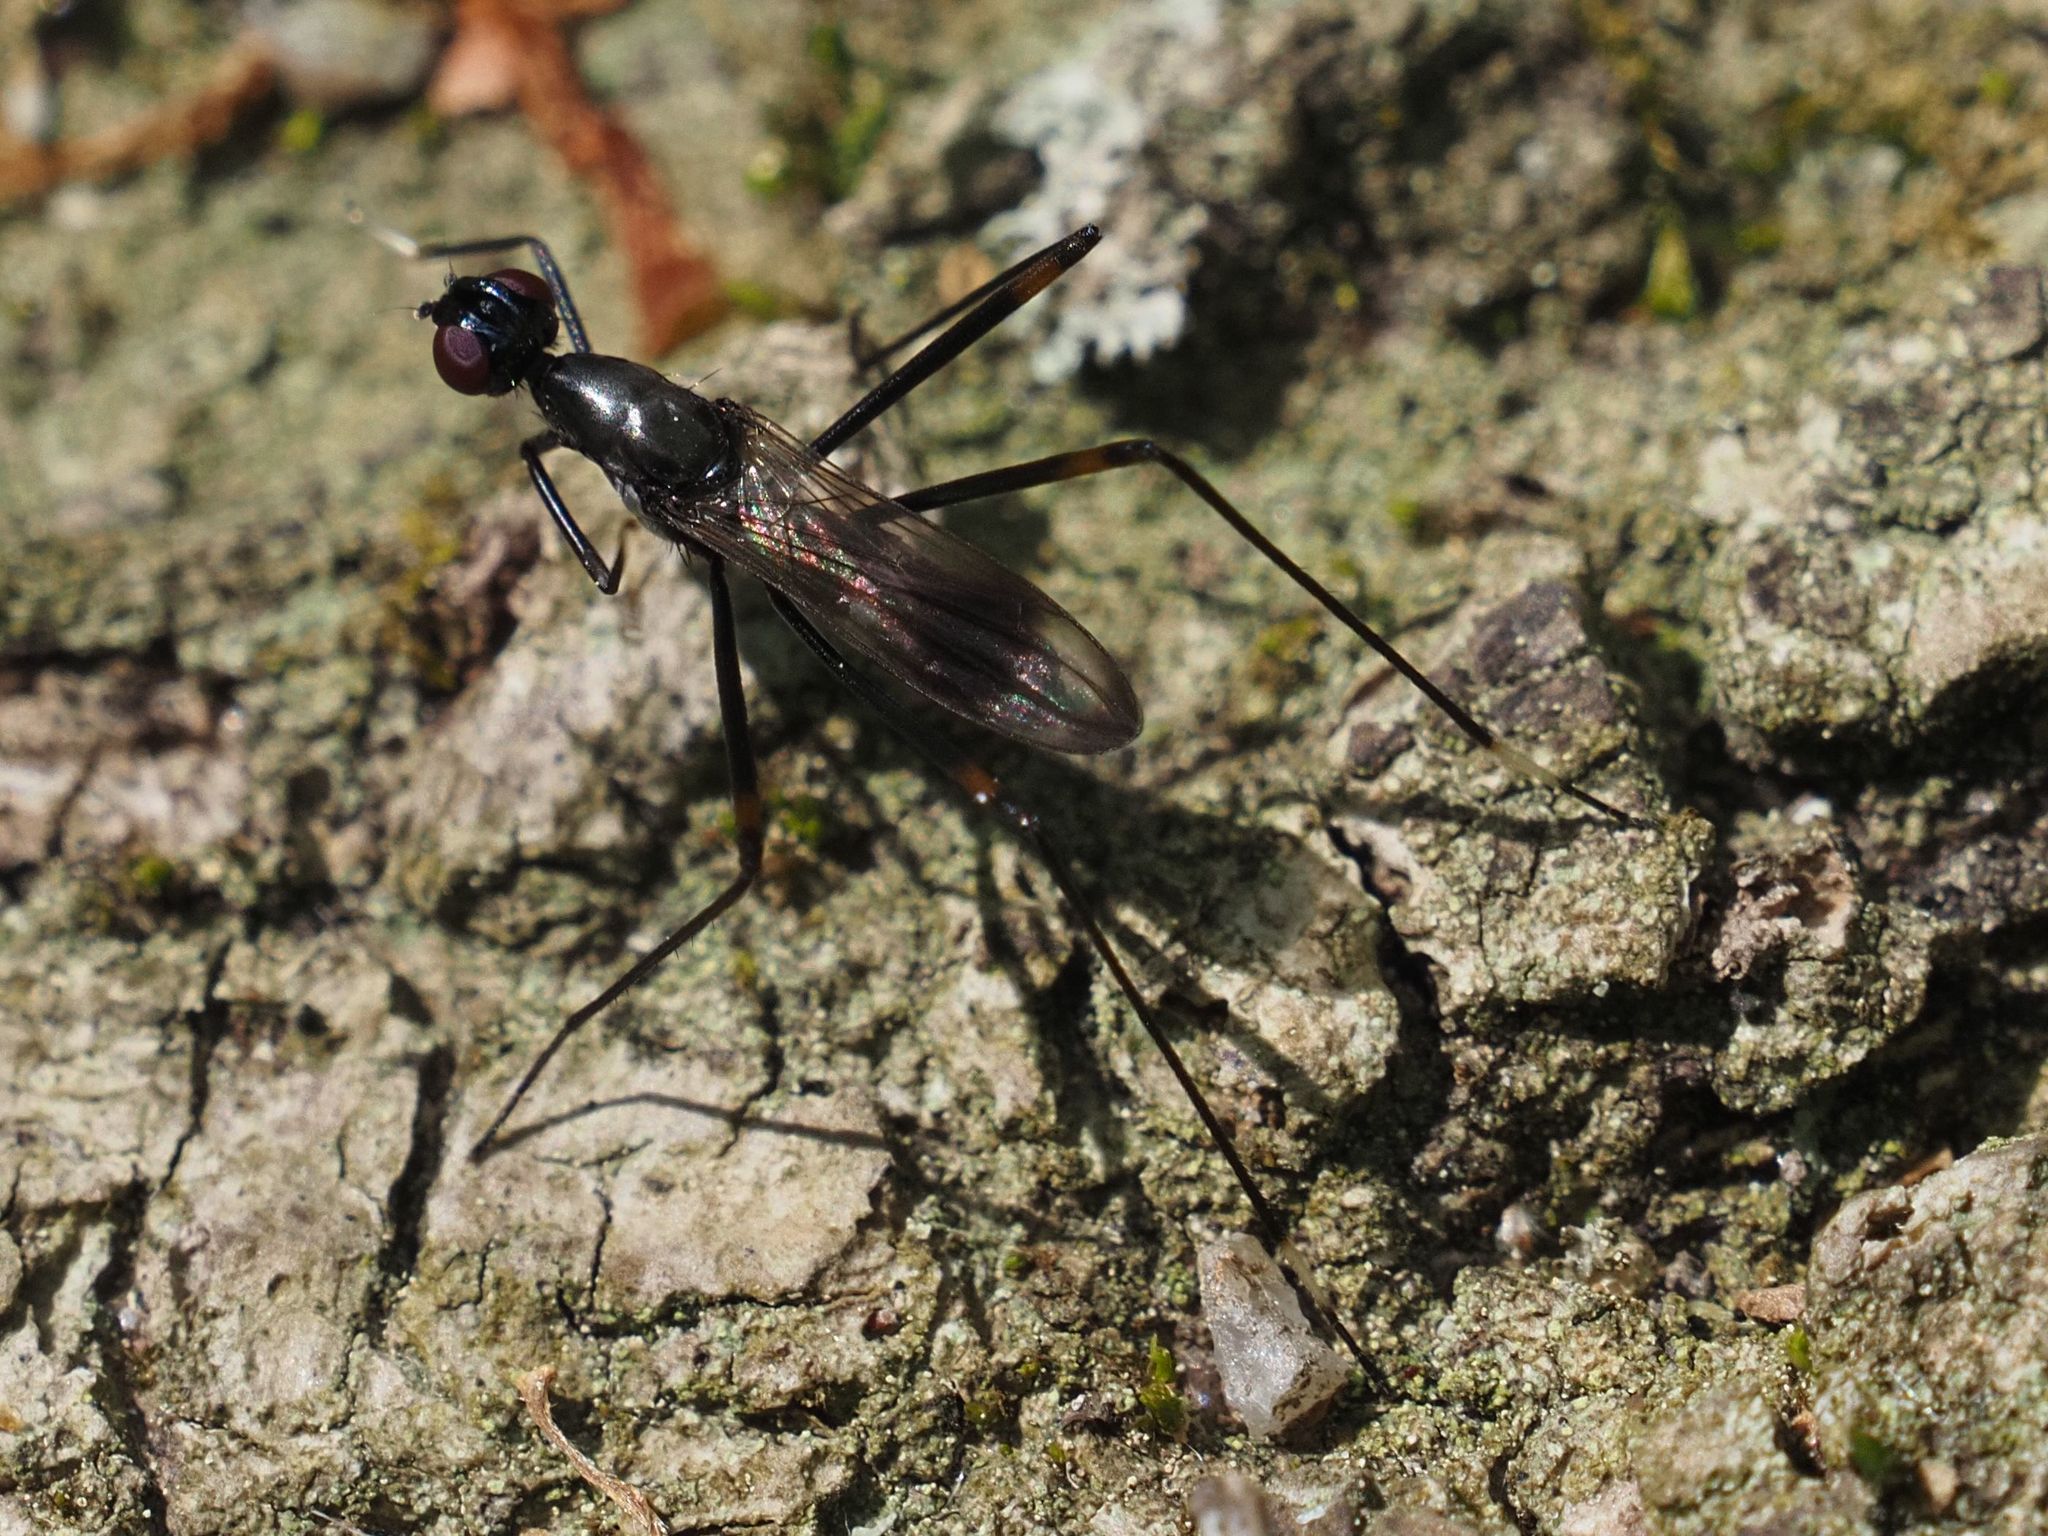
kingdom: Animalia
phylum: Arthropoda
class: Insecta
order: Diptera
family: Micropezidae
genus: Rainieria
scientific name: Rainieria calceata
